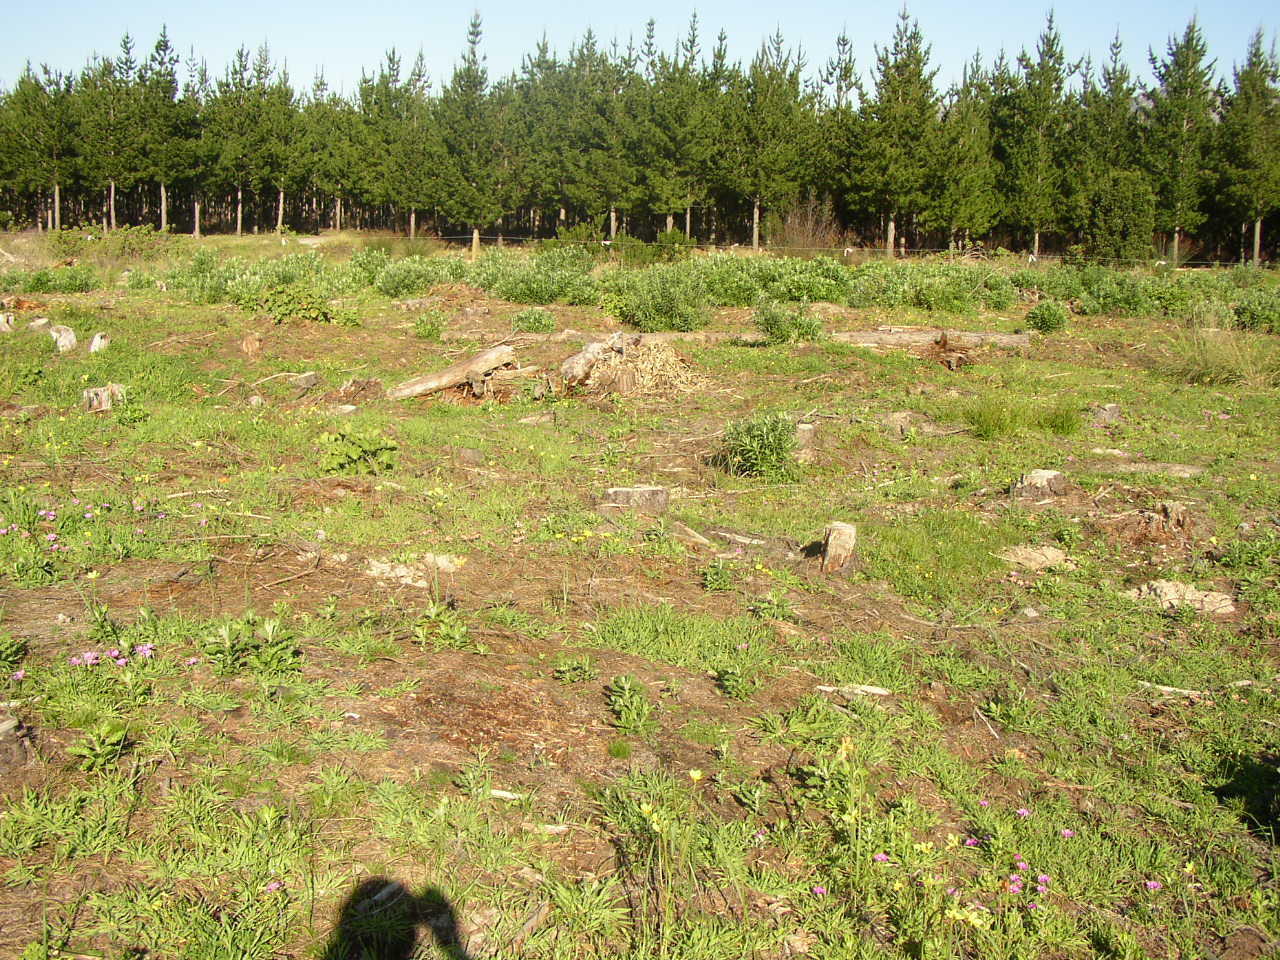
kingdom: Plantae
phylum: Tracheophyta
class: Magnoliopsida
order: Asterales
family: Asteraceae
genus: Senecio
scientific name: Senecio pterophorus
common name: Shoddy ragwort
